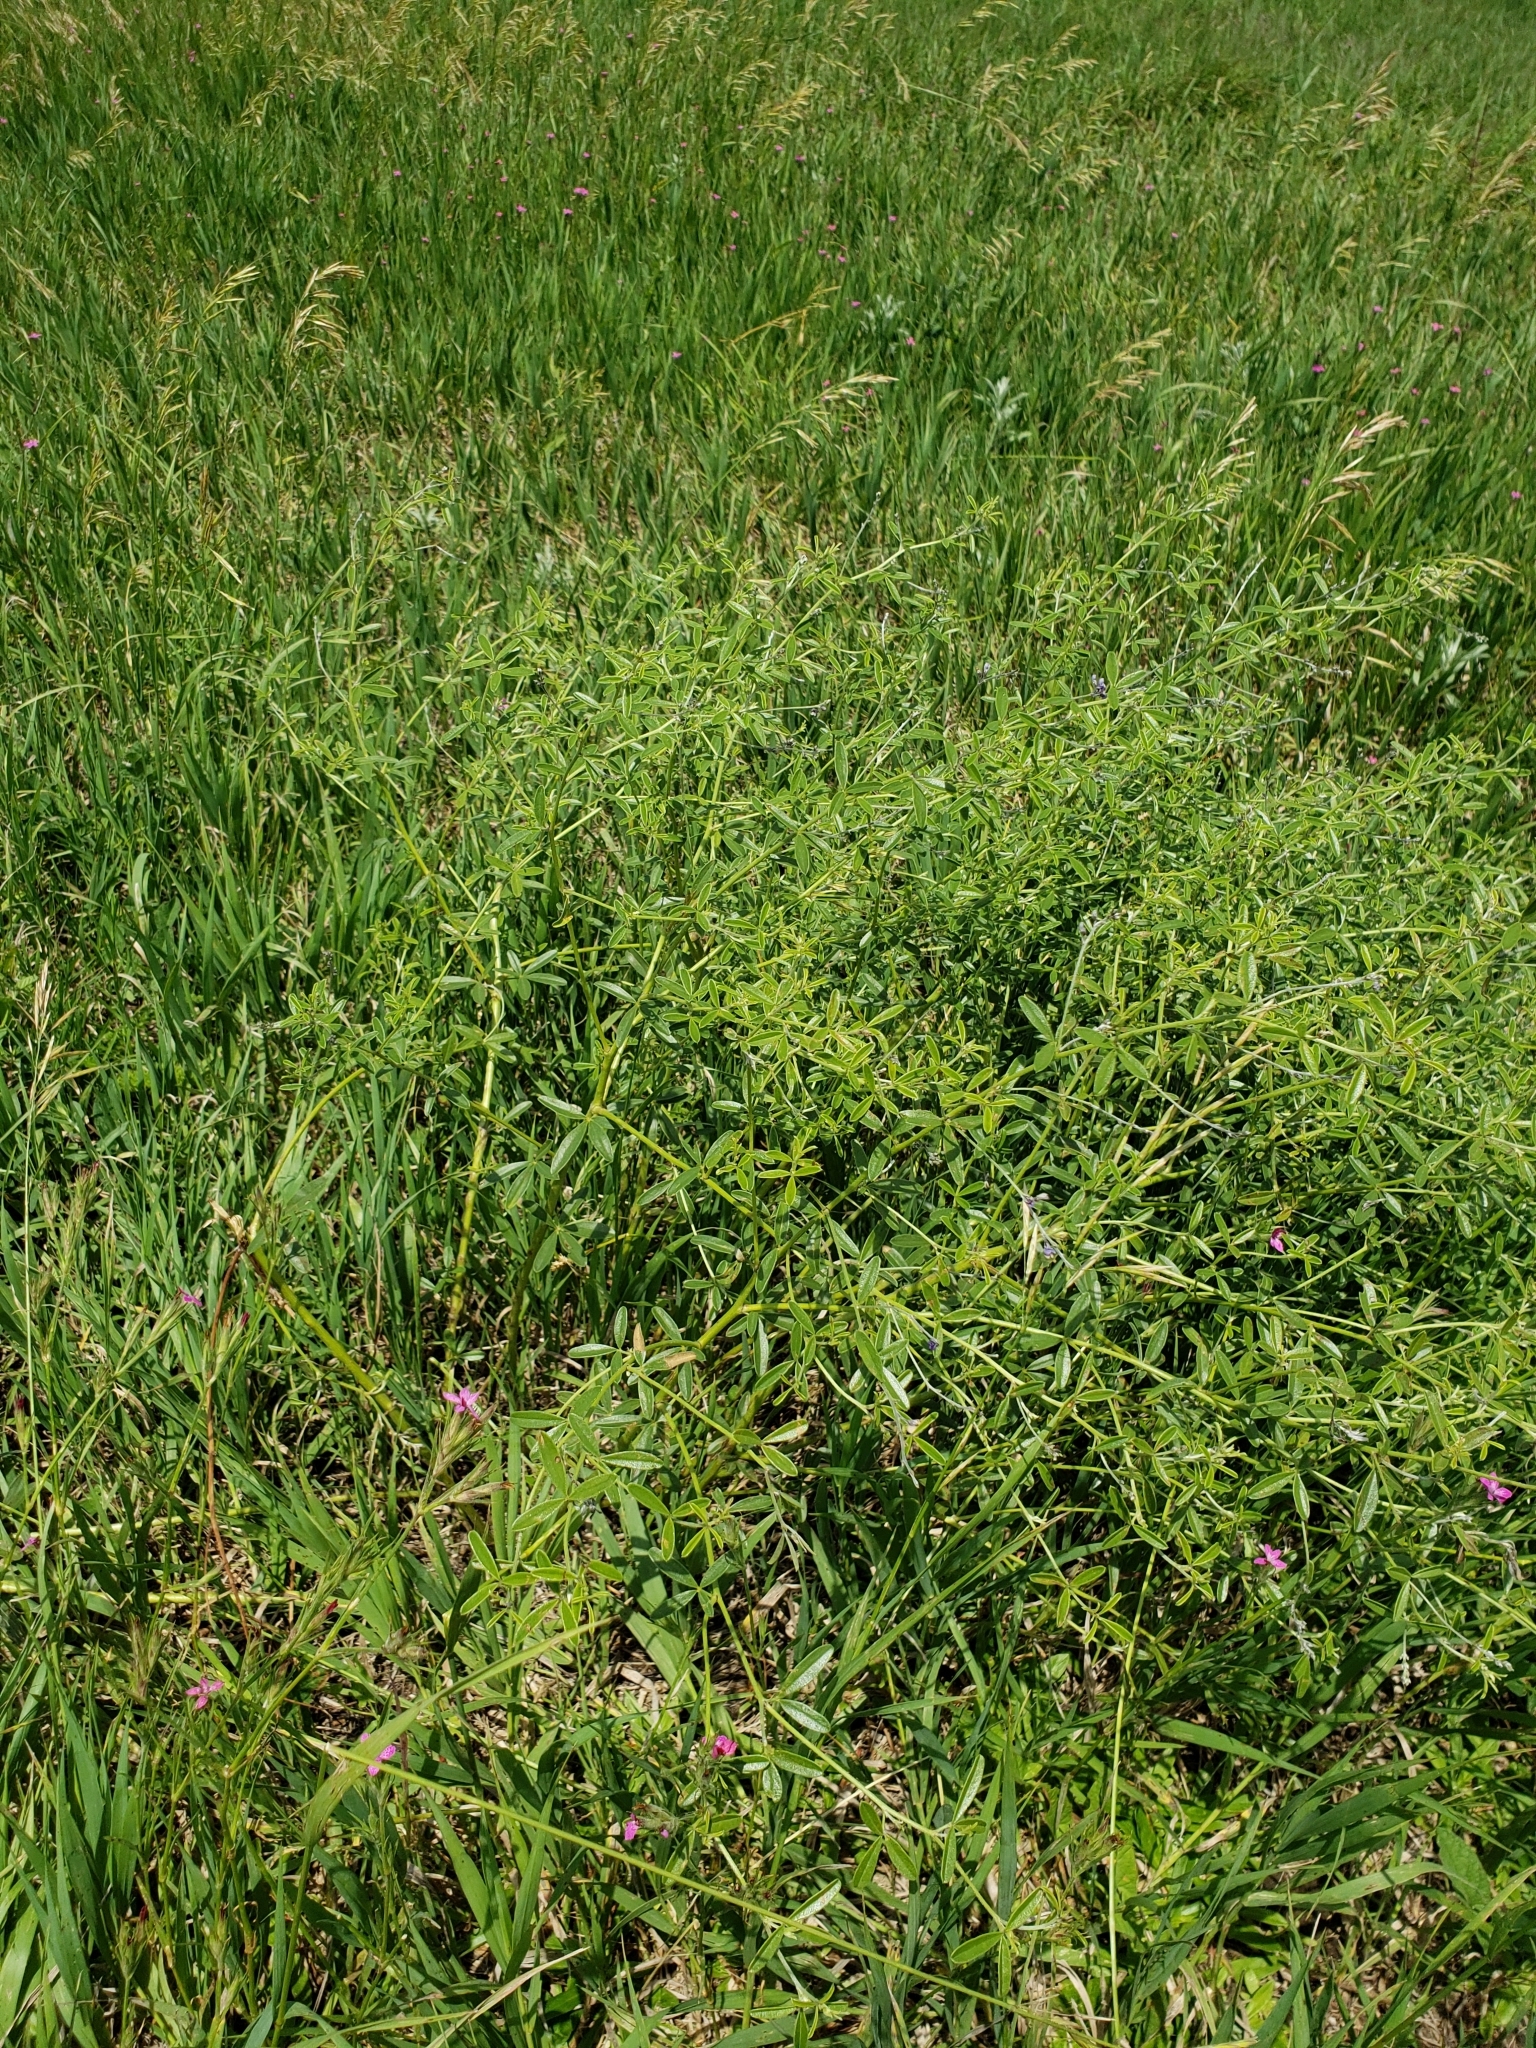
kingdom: Plantae
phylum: Tracheophyta
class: Magnoliopsida
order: Fabales
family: Fabaceae
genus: Pediomelum
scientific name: Pediomelum tenuiflorum
